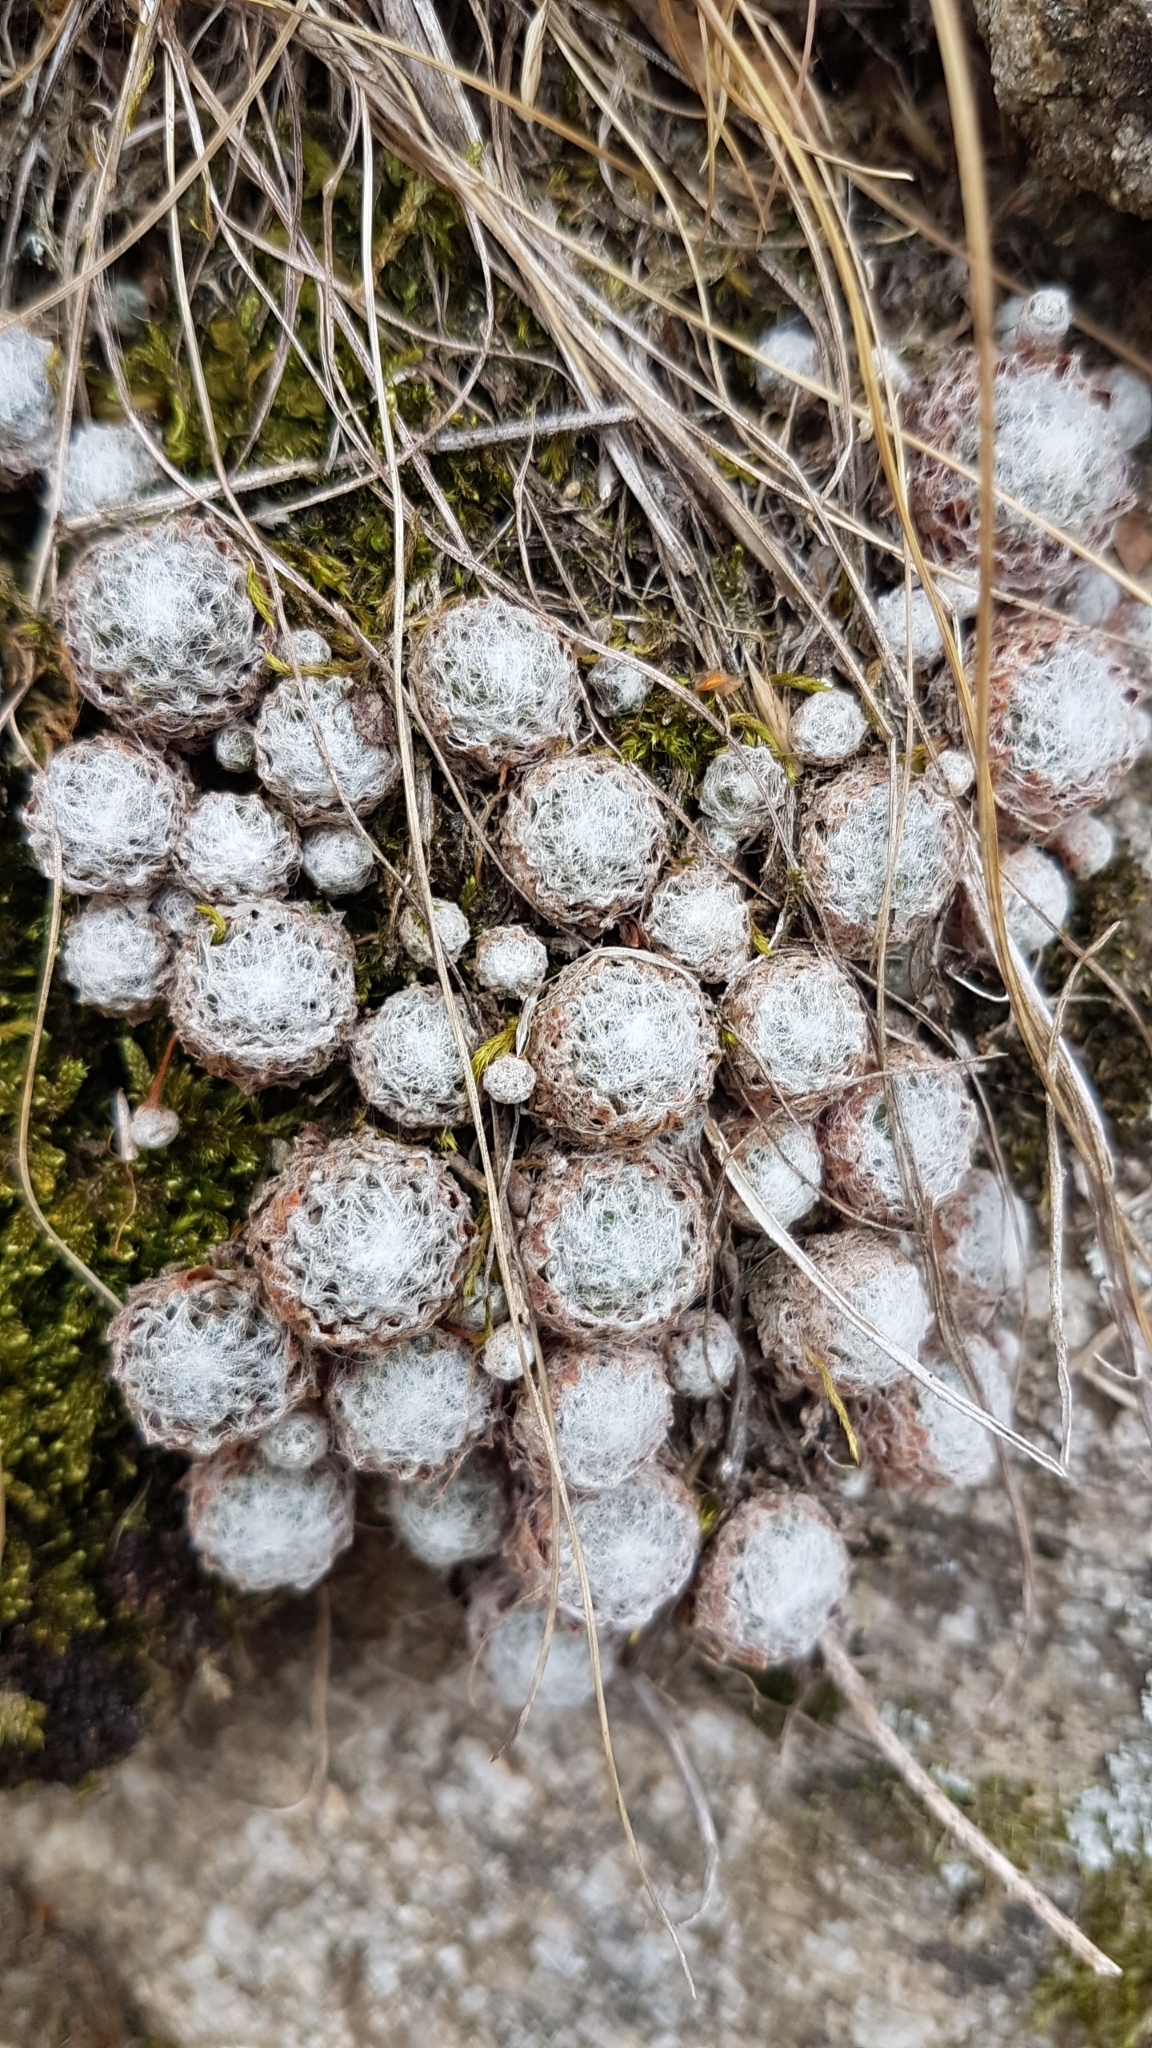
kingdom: Plantae
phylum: Tracheophyta
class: Magnoliopsida
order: Saxifragales
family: Crassulaceae
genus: Sempervivum
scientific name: Sempervivum arachnoideum
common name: Cobweb house-leek
